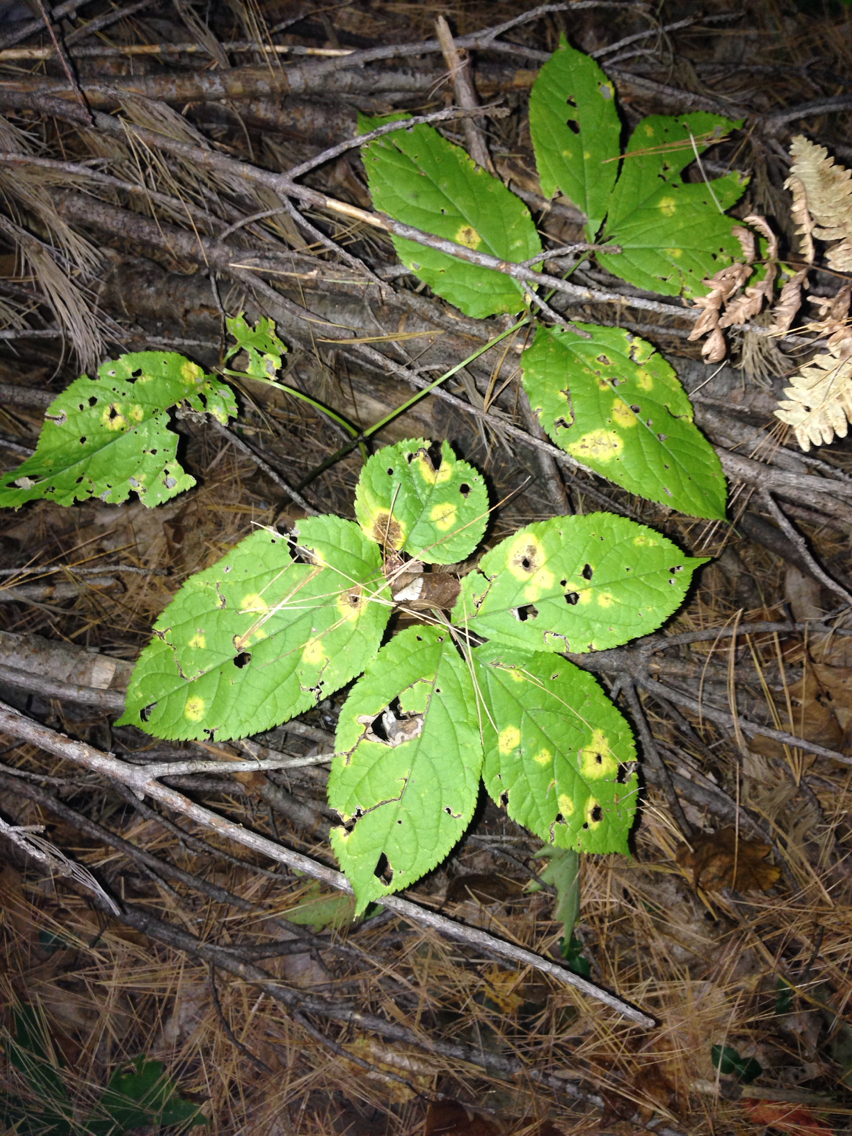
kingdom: Plantae
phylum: Tracheophyta
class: Magnoliopsida
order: Apiales
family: Araliaceae
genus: Aralia
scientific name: Aralia nudicaulis
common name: Wild sarsaparilla
